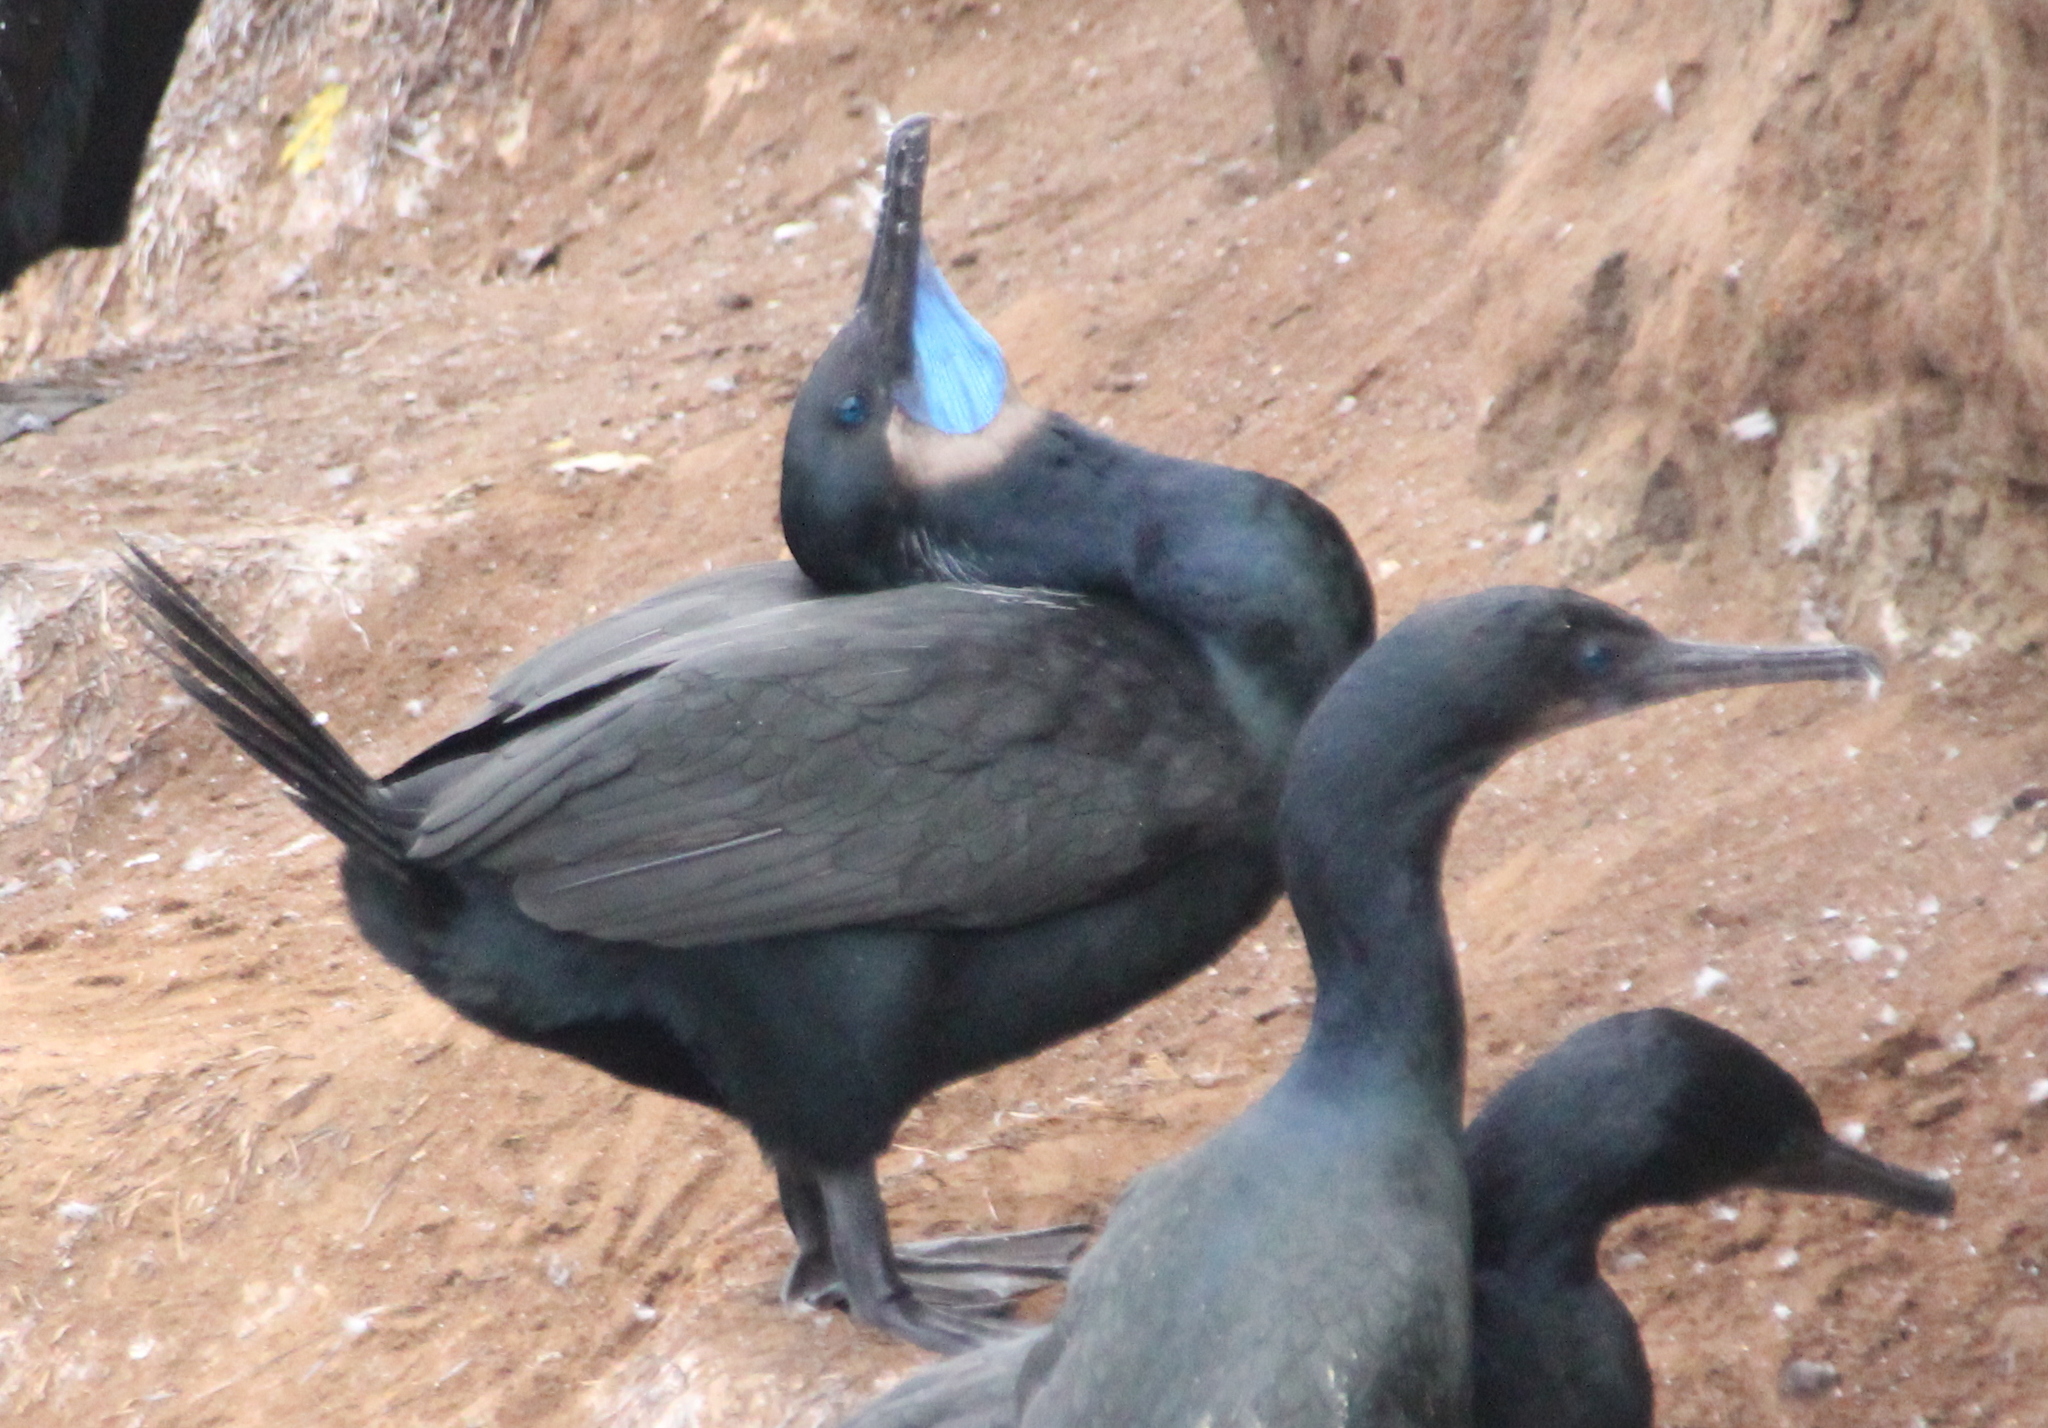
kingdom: Animalia
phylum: Chordata
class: Aves
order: Suliformes
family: Phalacrocoracidae
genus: Urile
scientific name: Urile penicillatus
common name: Brandt's cormorant
